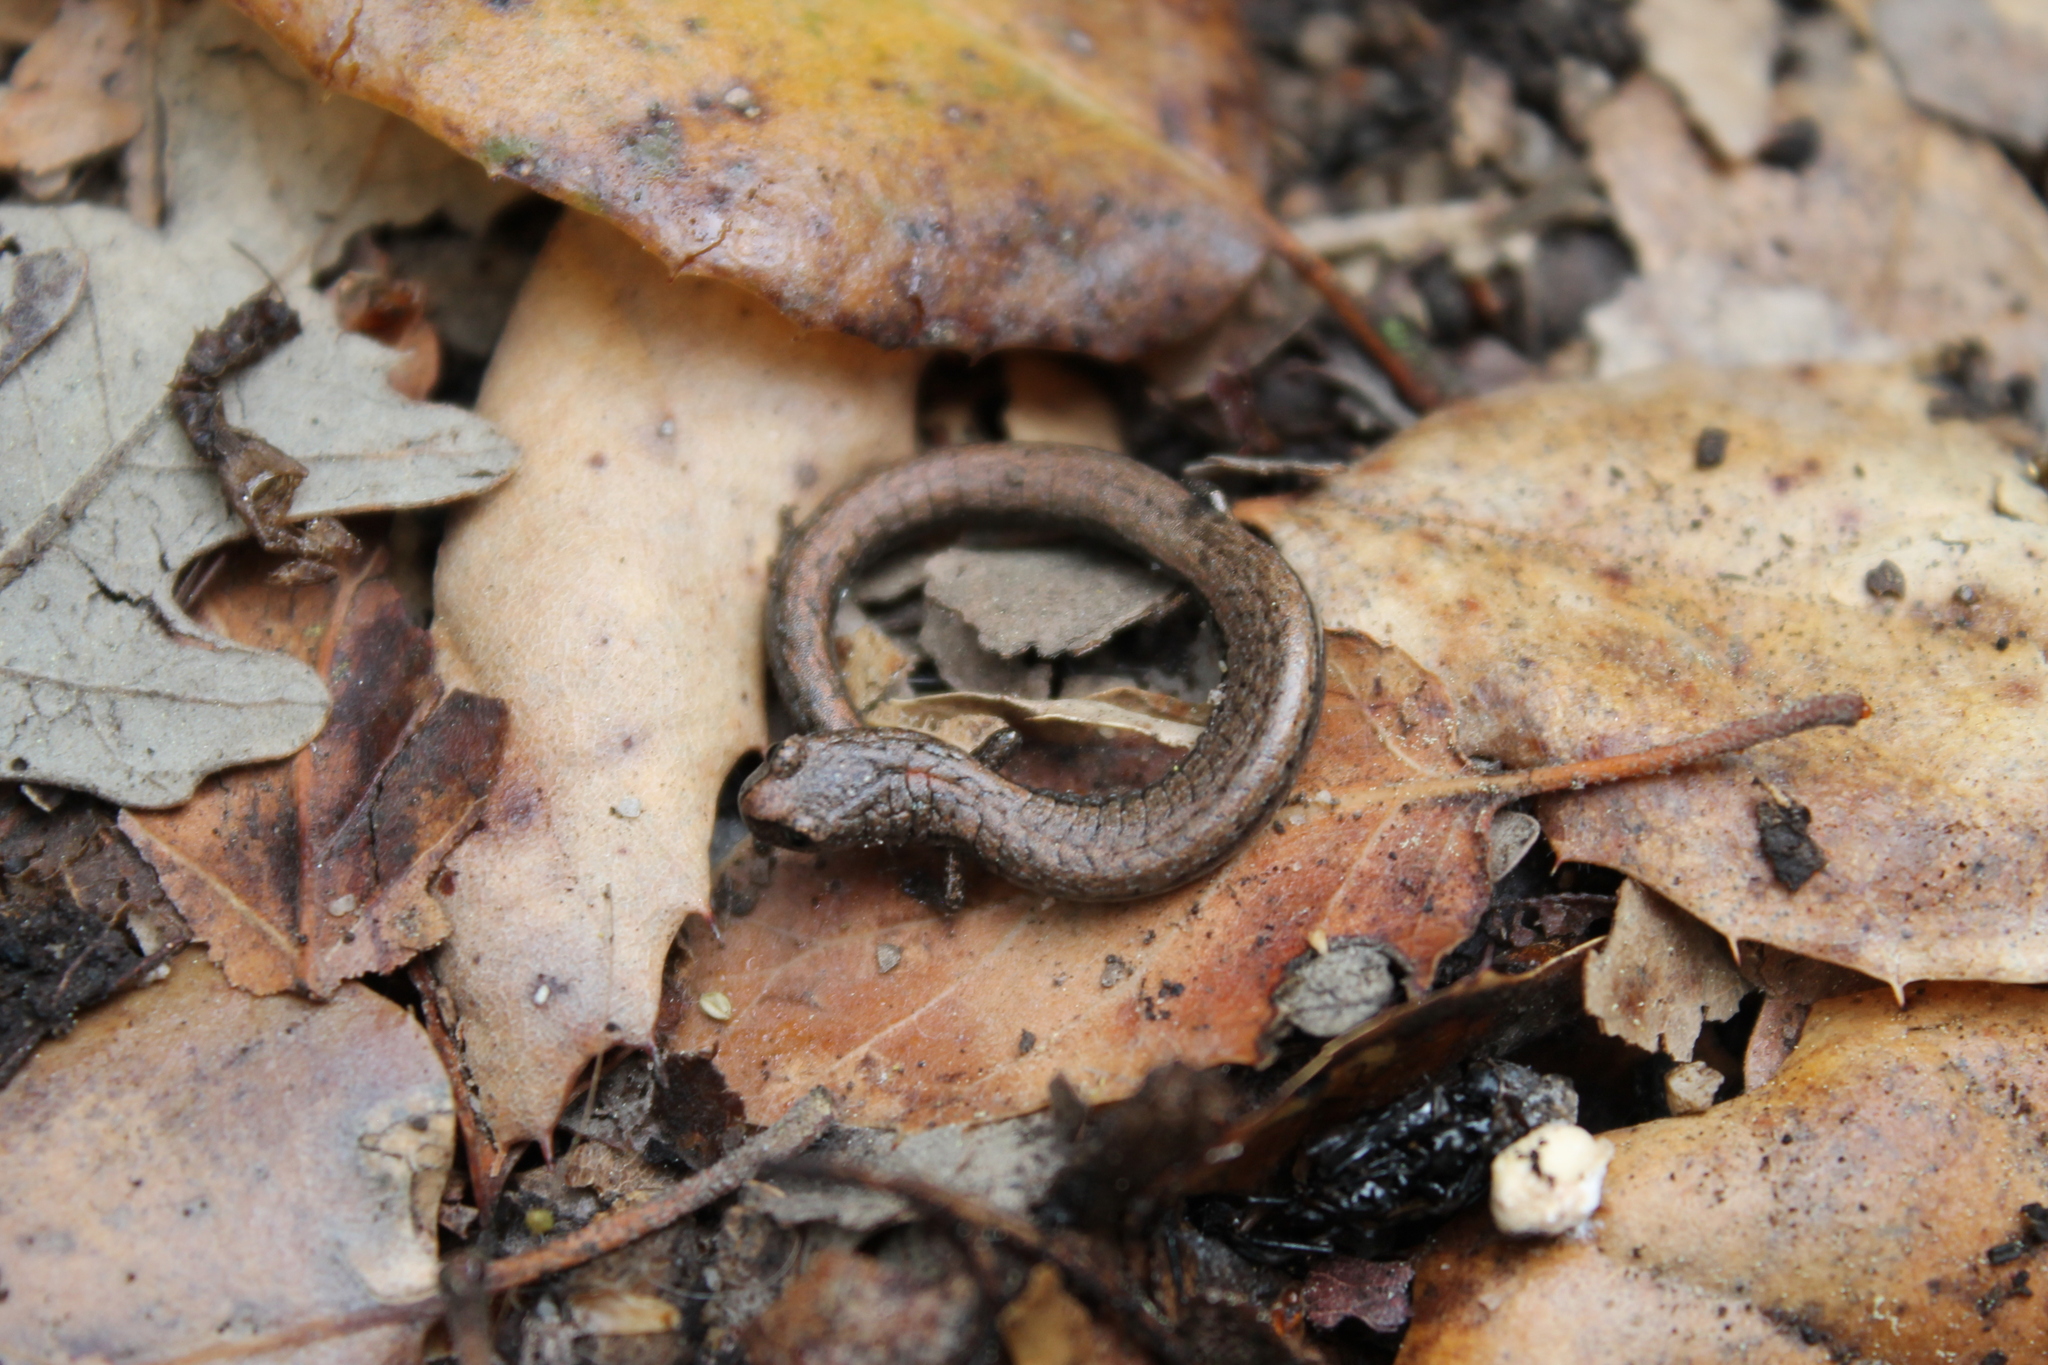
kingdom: Animalia
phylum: Chordata
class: Amphibia
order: Caudata
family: Plethodontidae
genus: Batrachoseps
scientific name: Batrachoseps gavilanensis
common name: Gabilan mountains slender salamander
